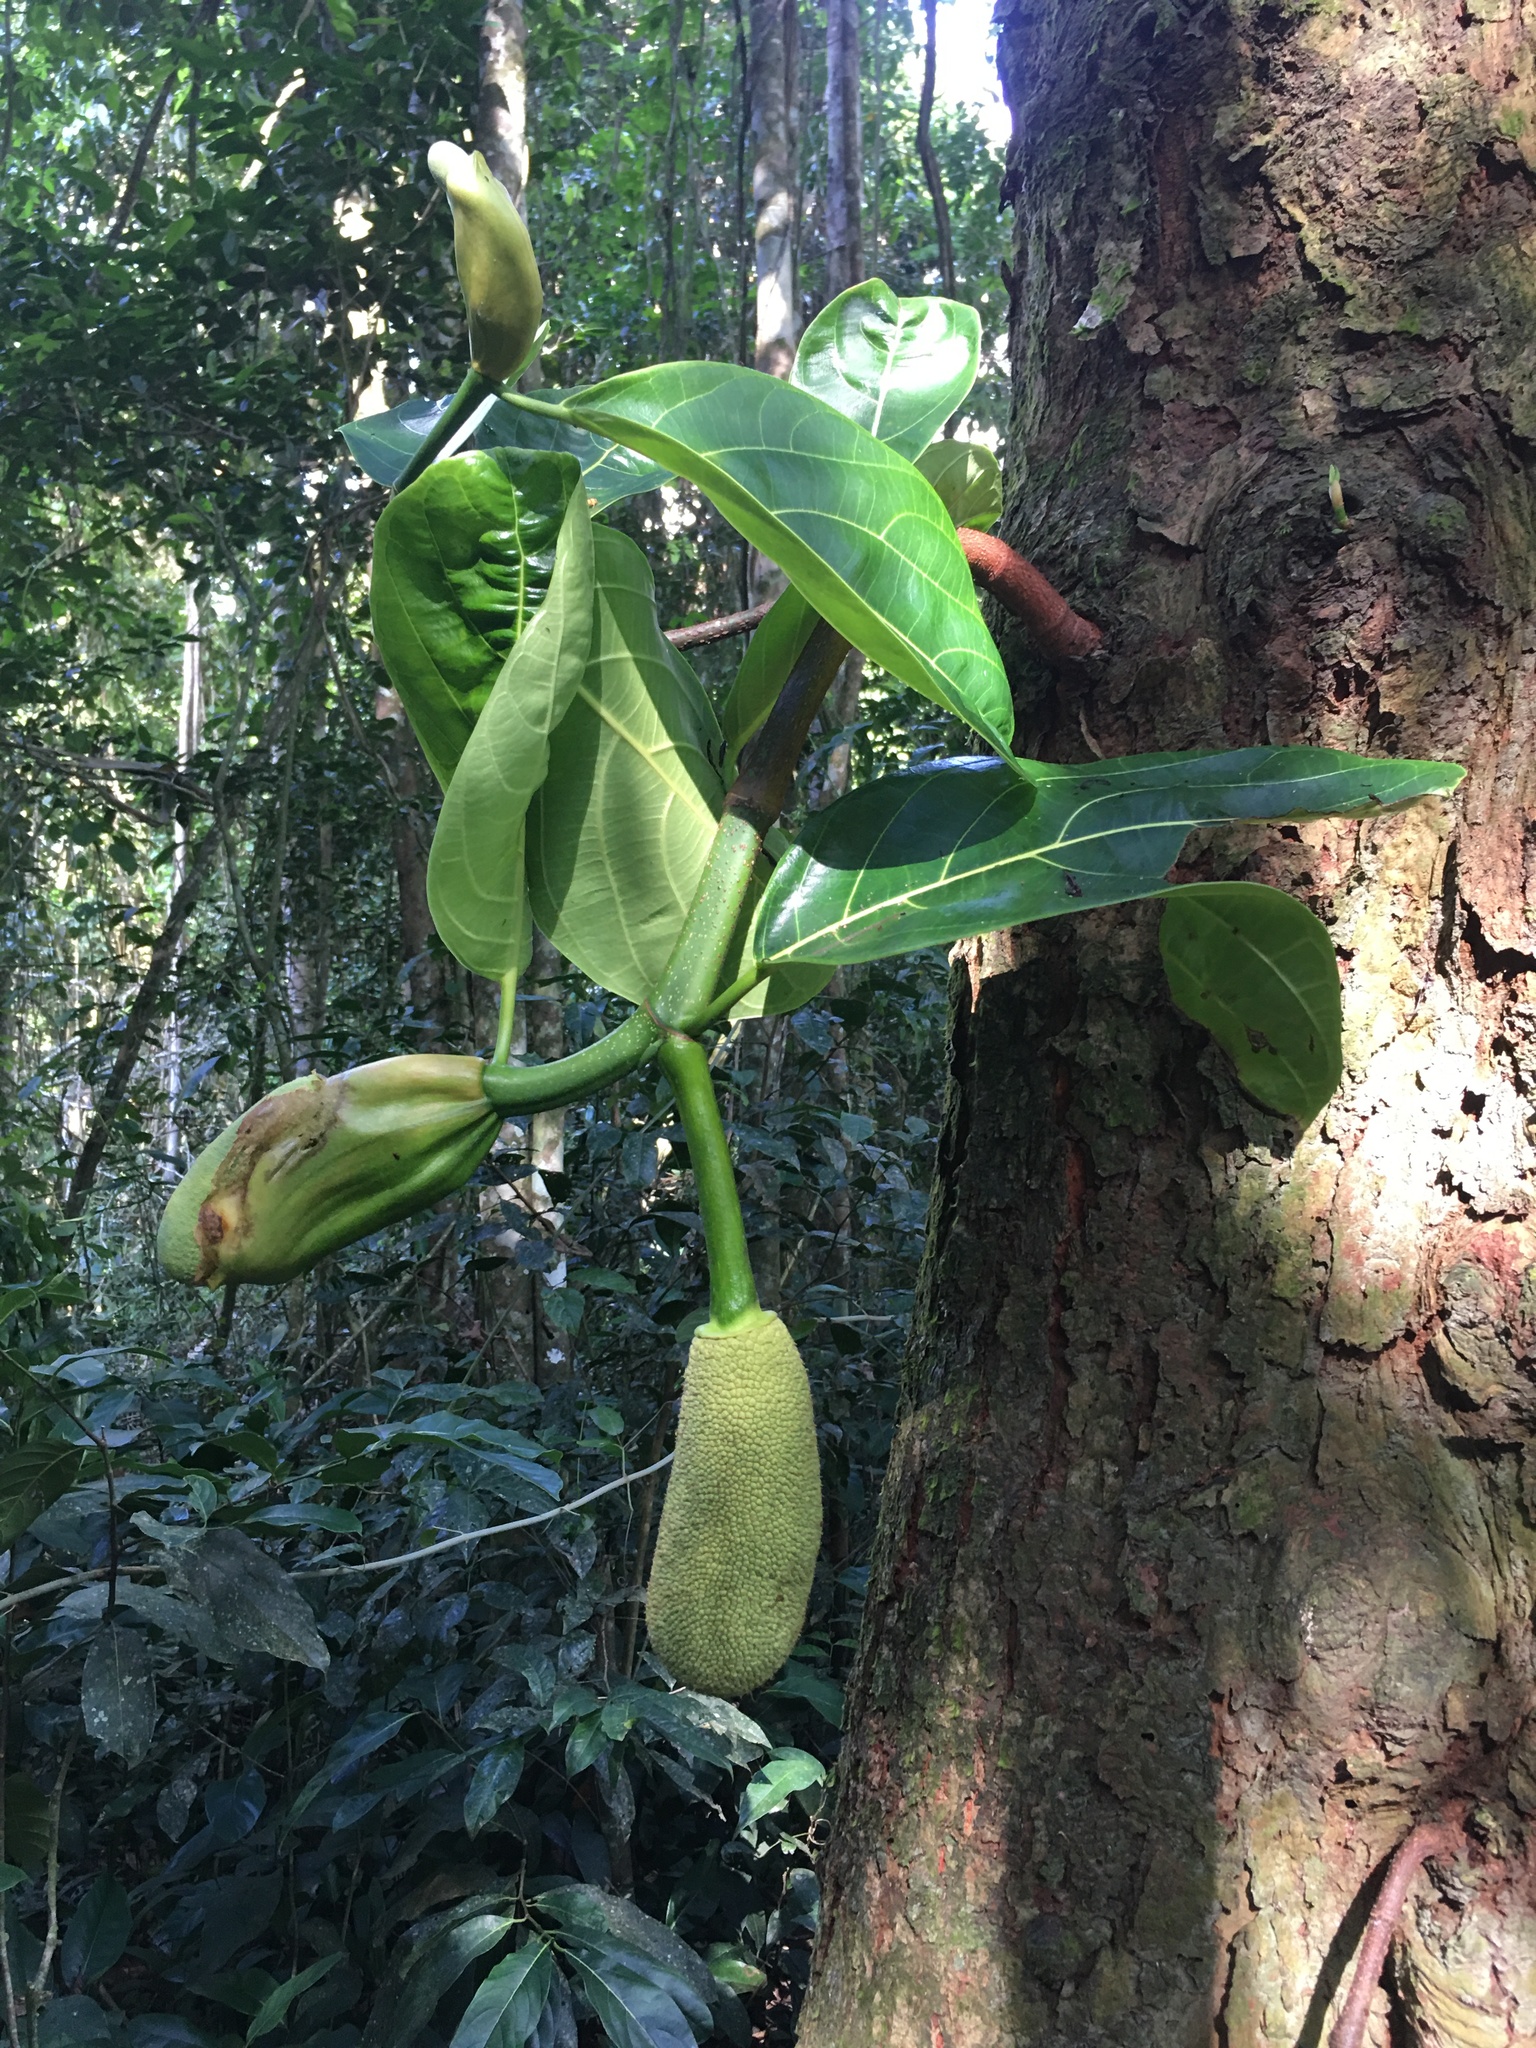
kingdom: Plantae
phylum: Tracheophyta
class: Magnoliopsida
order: Rosales
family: Moraceae
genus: Artocarpus
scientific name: Artocarpus heterophyllus
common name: Jackfruit
